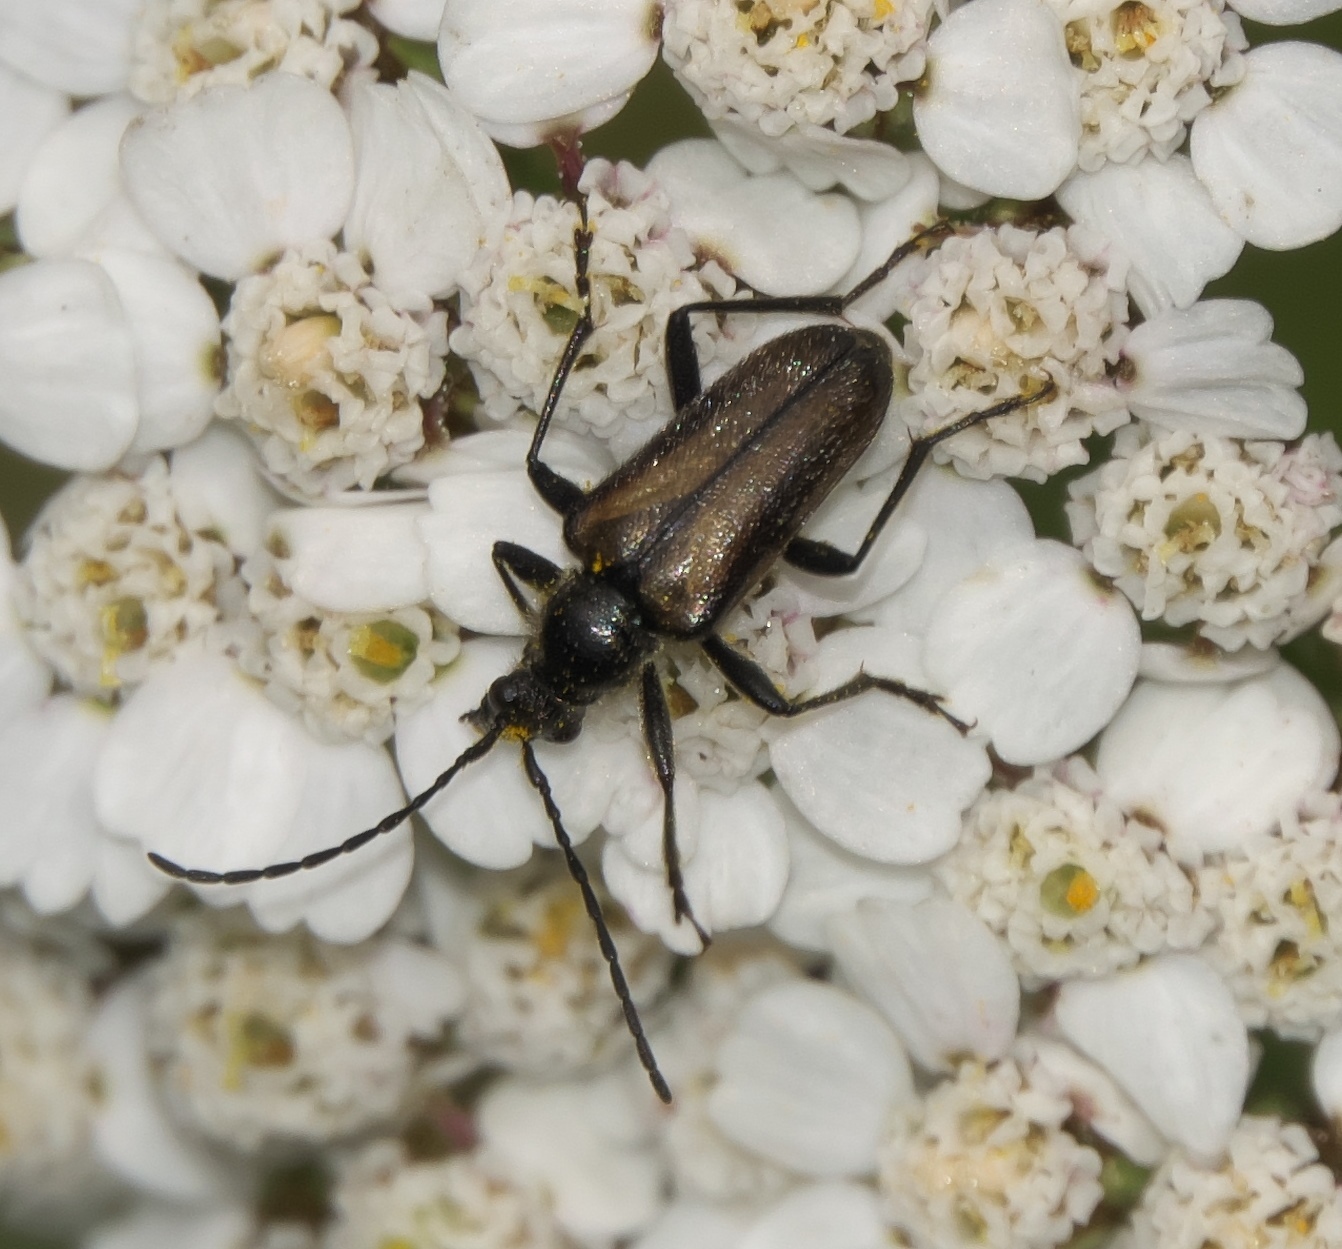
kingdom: Animalia
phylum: Arthropoda
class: Insecta
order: Coleoptera
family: Cerambycidae
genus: Gnathacmaeops
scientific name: Gnathacmaeops pratensis
